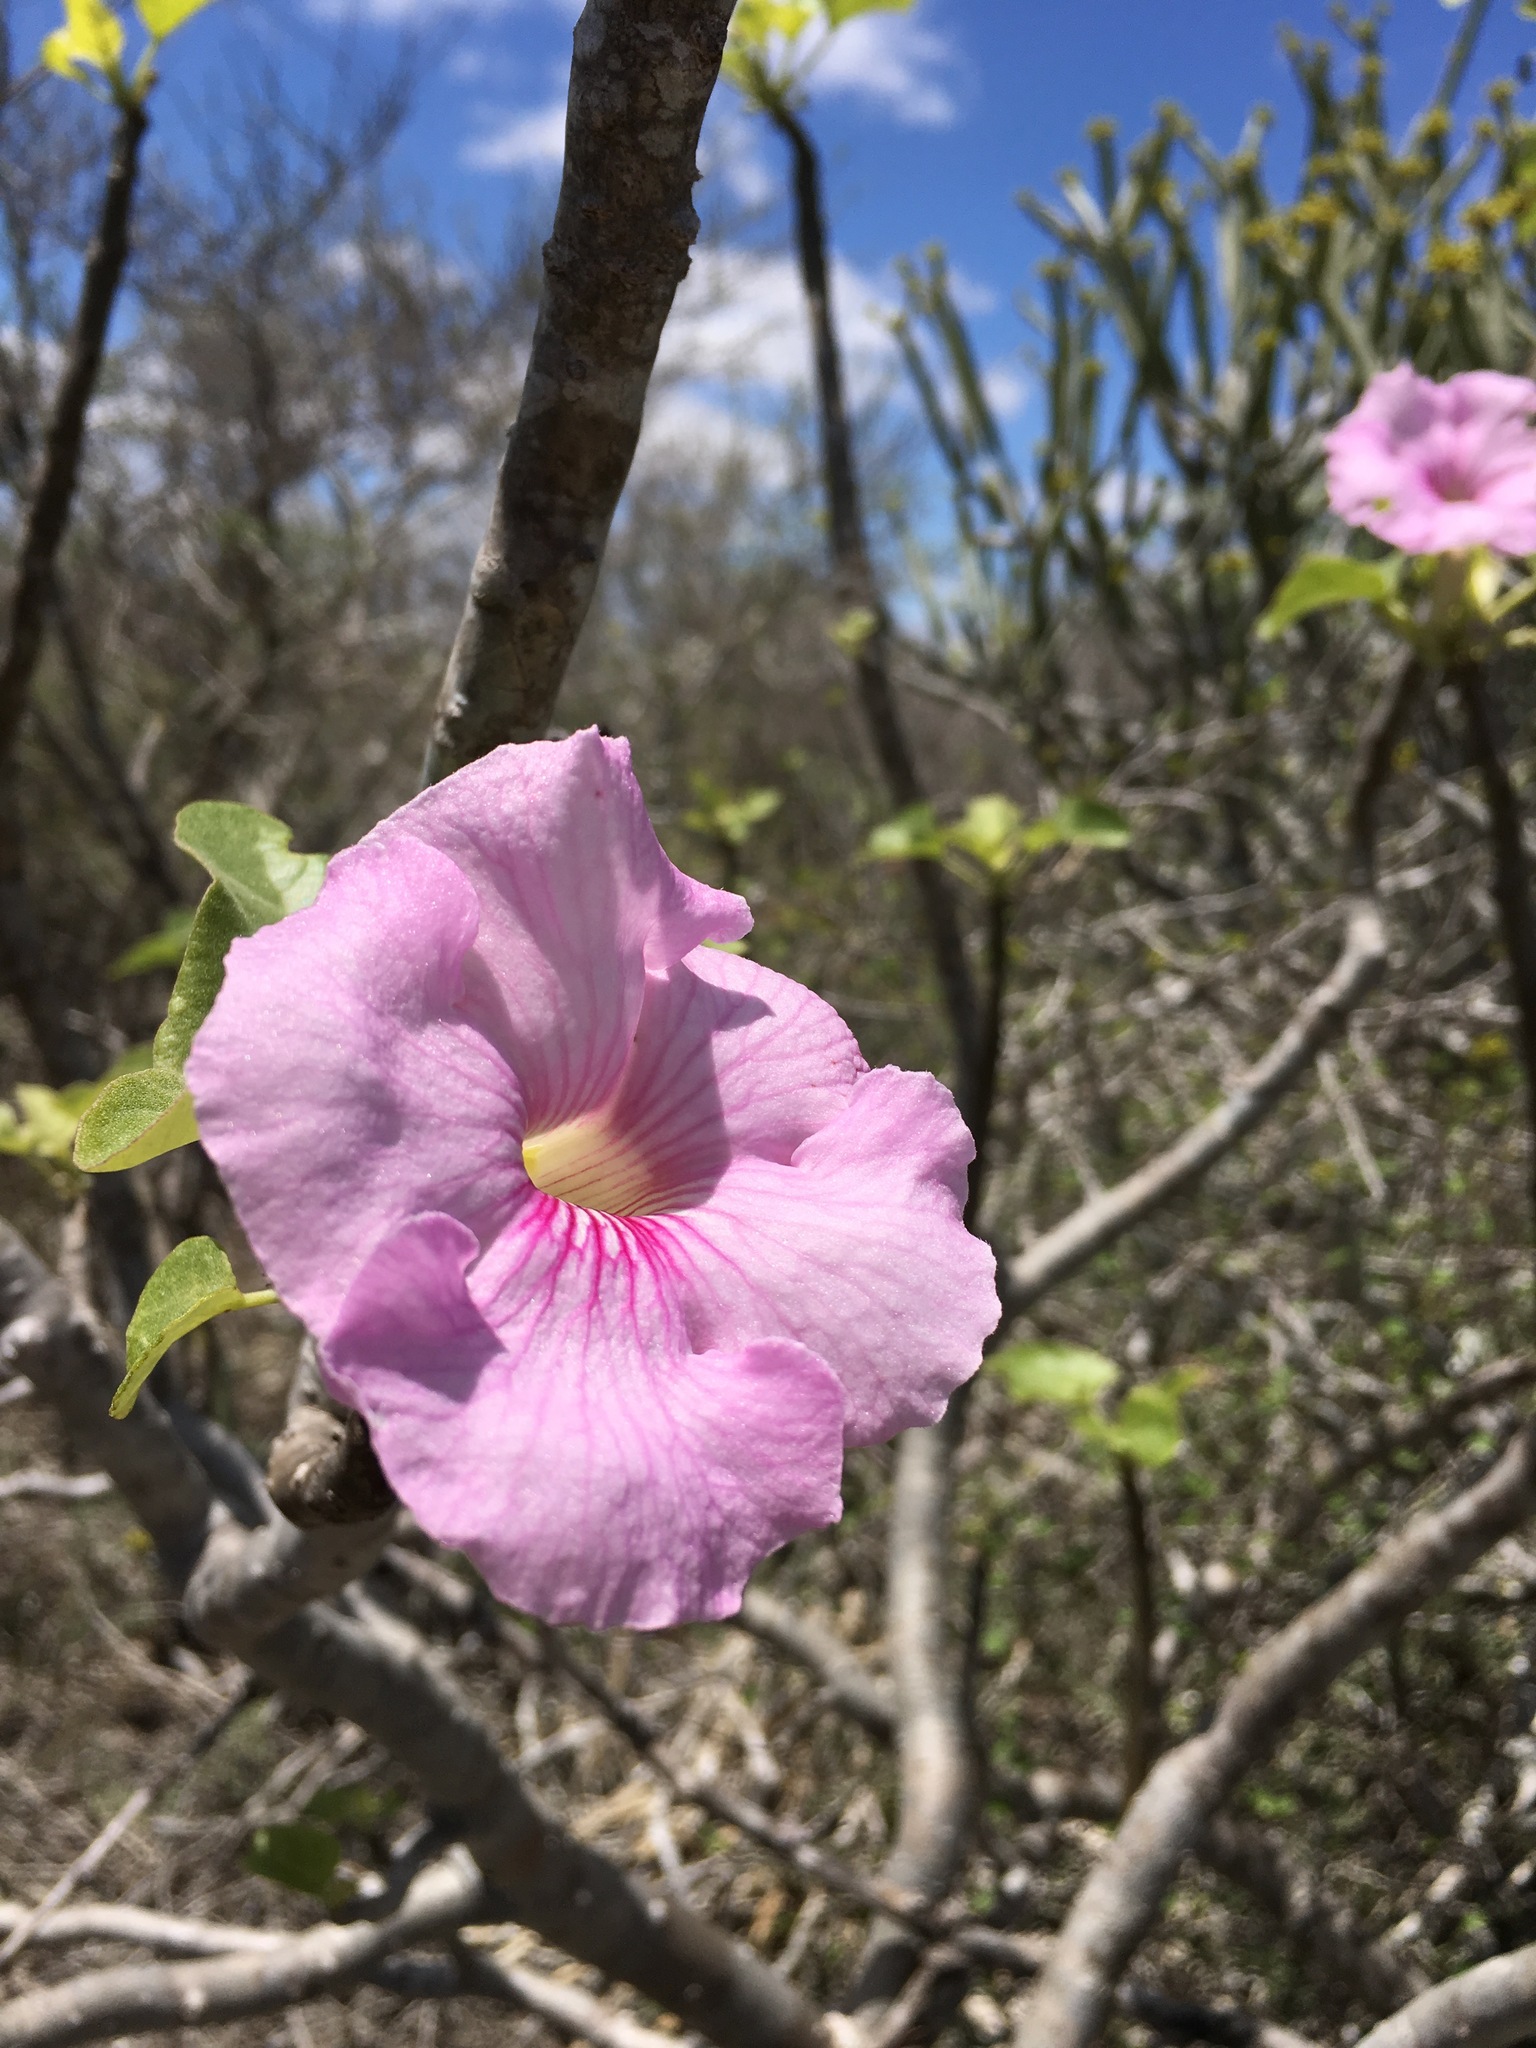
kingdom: Plantae
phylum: Tracheophyta
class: Magnoliopsida
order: Lamiales
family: Pedaliaceae
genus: Uncarina
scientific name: Uncarina stellulifera
